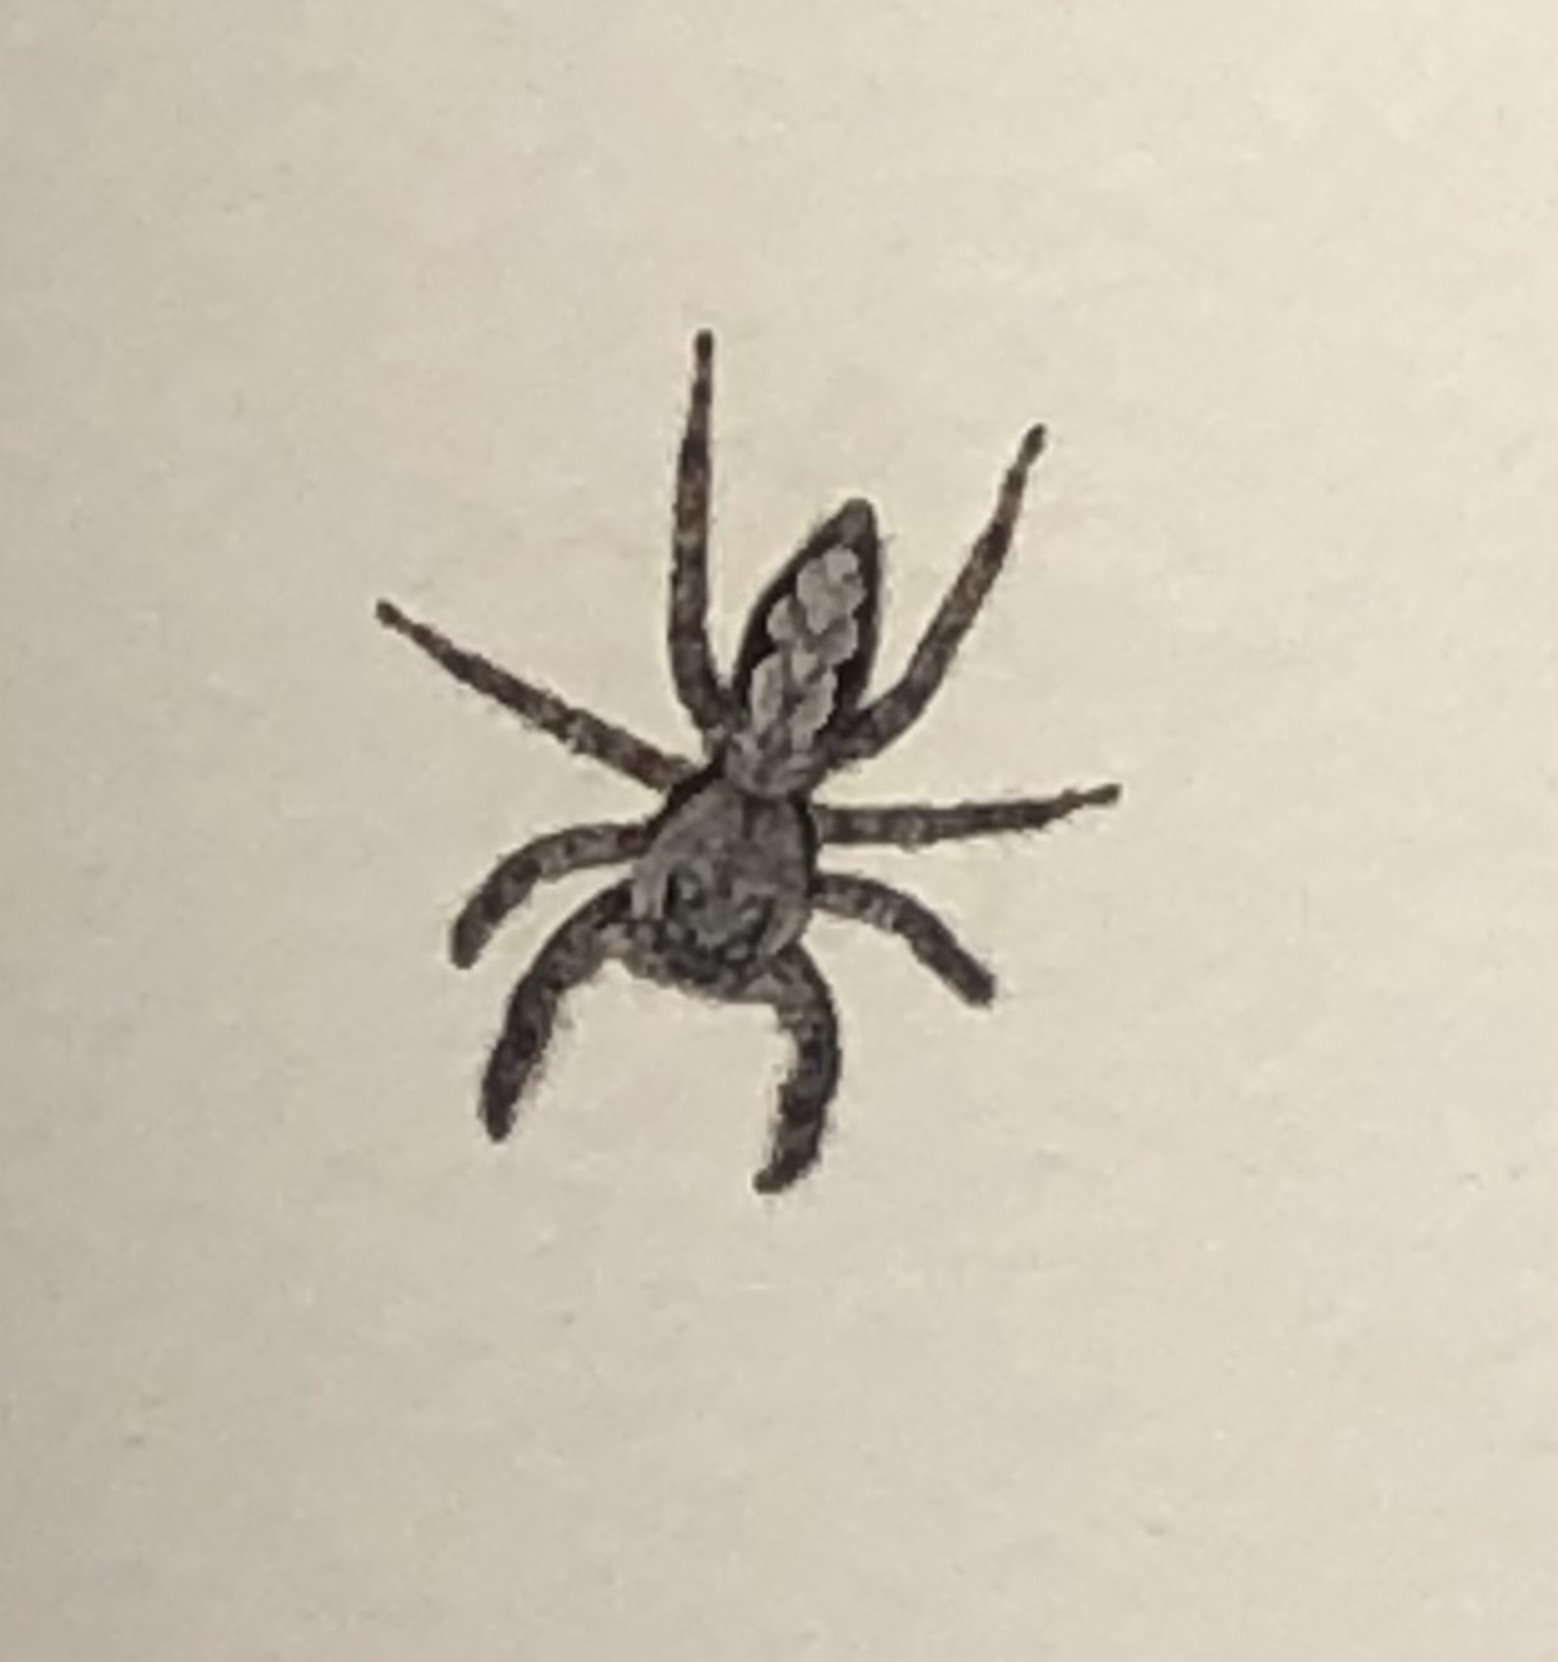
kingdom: Animalia
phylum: Arthropoda
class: Arachnida
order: Araneae
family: Salticidae
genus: Platycryptus
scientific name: Platycryptus undatus
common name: Tan jumping spider
